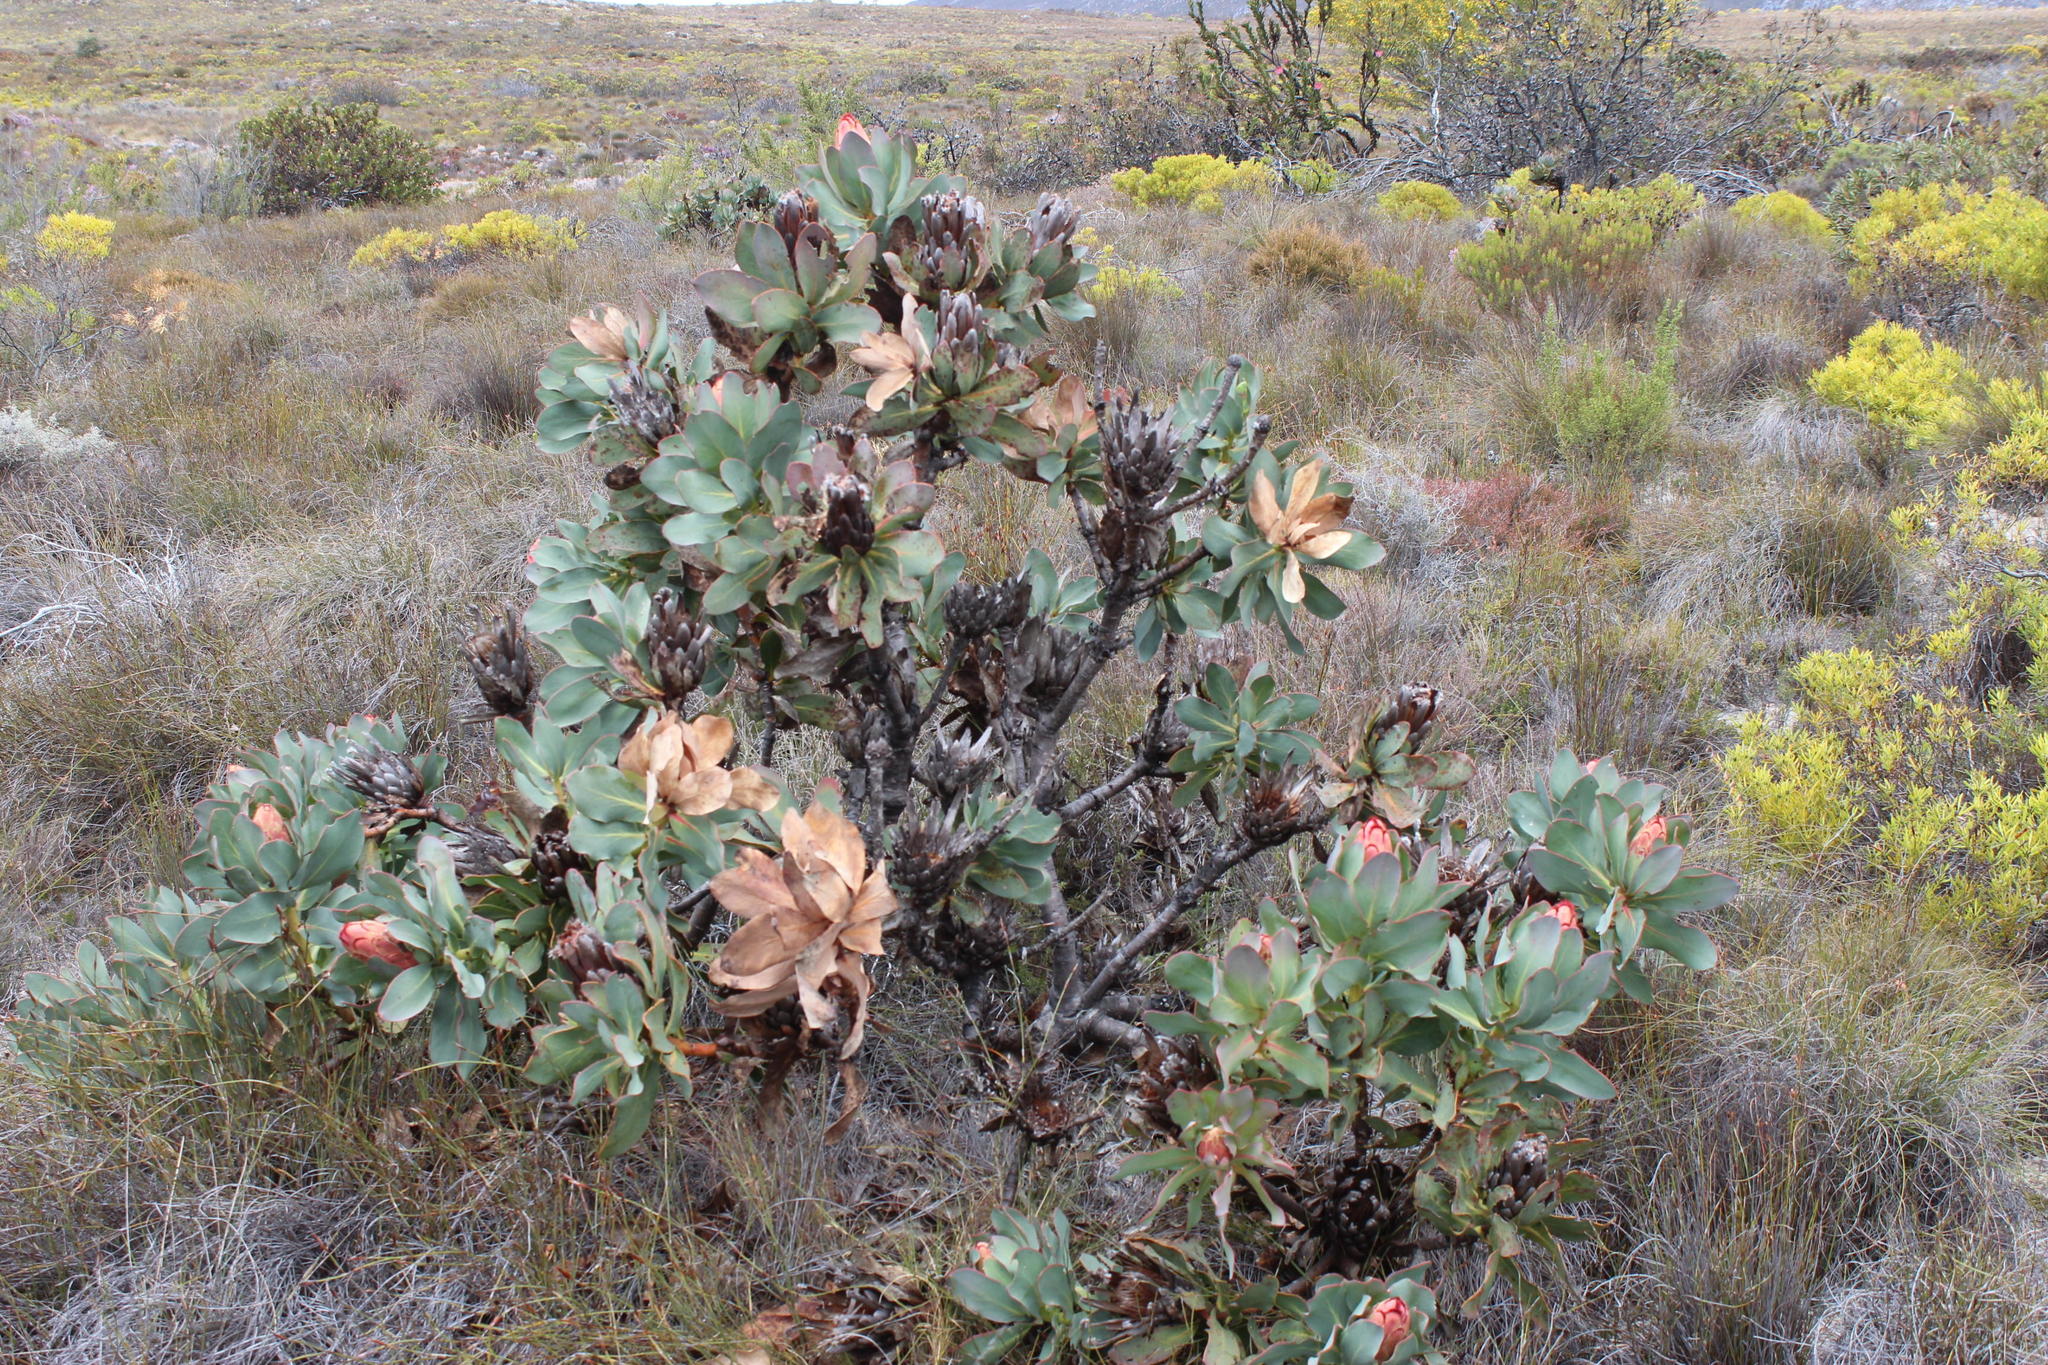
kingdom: Plantae
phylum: Tracheophyta
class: Magnoliopsida
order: Proteales
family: Proteaceae
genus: Protea
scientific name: Protea grandiceps
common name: Red sugarbush
